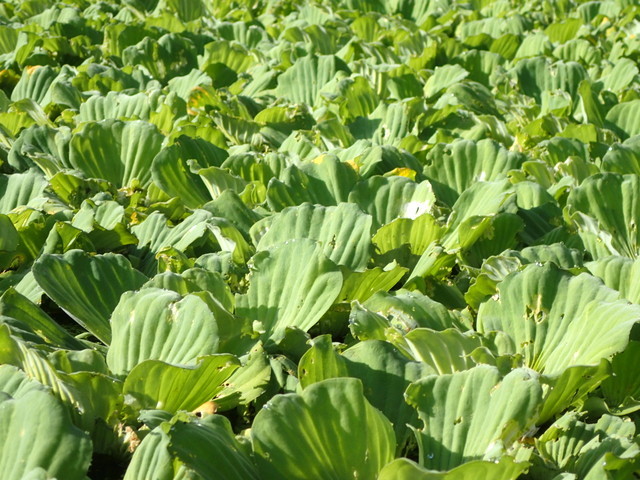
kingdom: Plantae
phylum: Tracheophyta
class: Liliopsida
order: Alismatales
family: Araceae
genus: Pistia
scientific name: Pistia stratiotes
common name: Water lettuce
